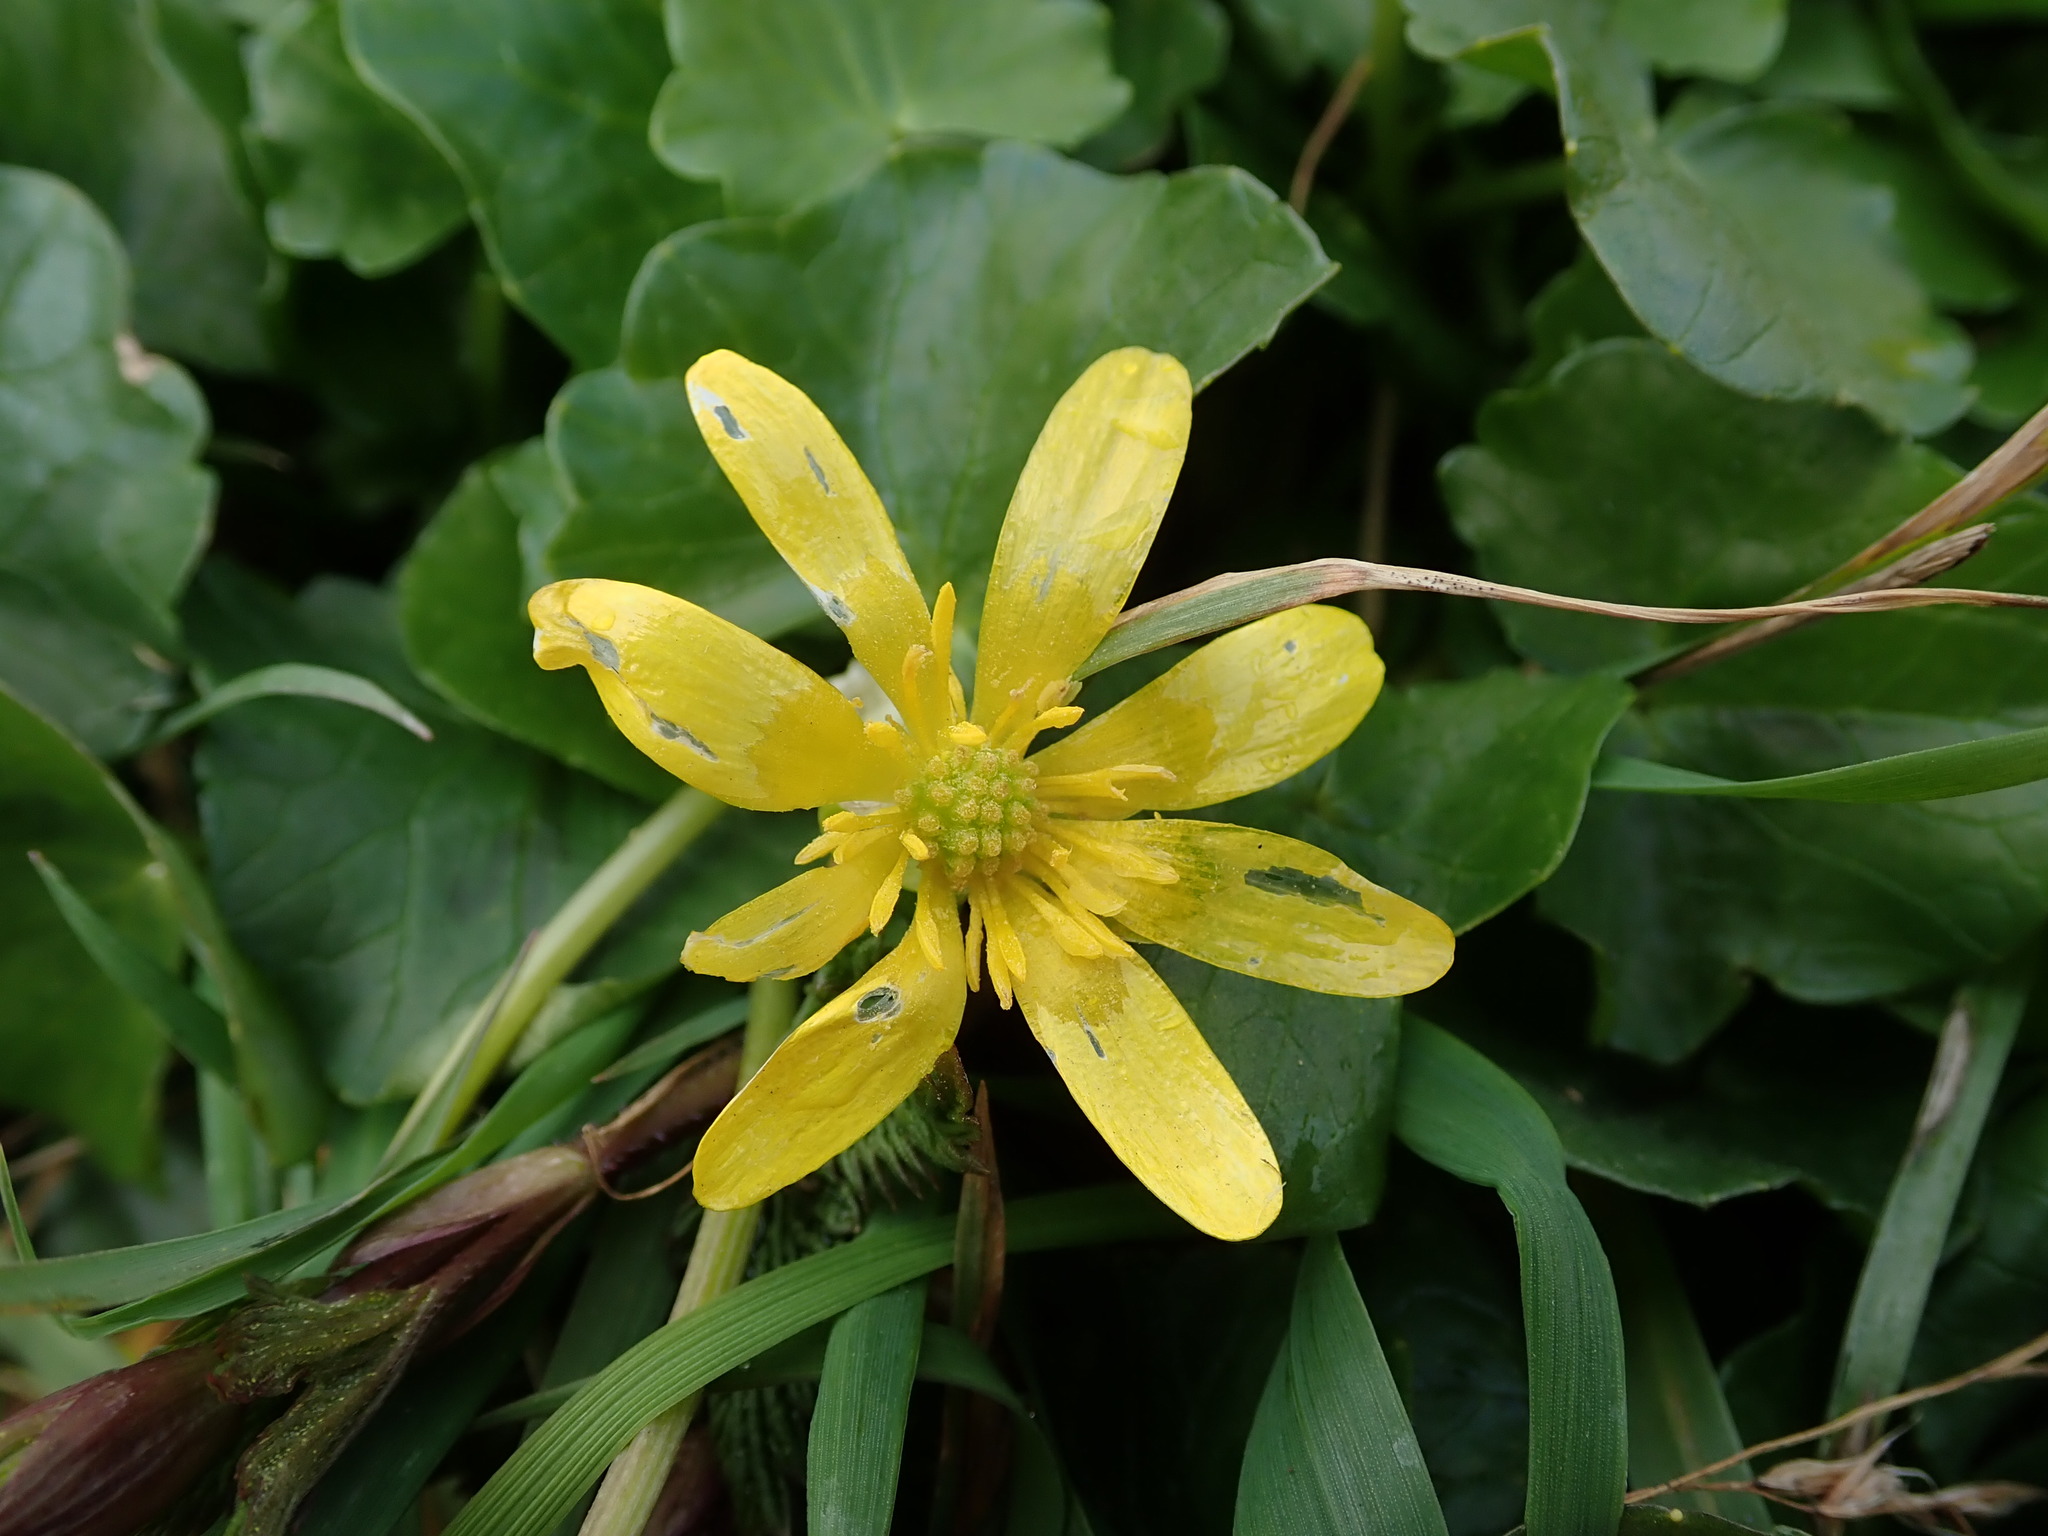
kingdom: Plantae
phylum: Tracheophyta
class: Magnoliopsida
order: Ranunculales
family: Ranunculaceae
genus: Ficaria
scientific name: Ficaria verna
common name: Lesser celandine
